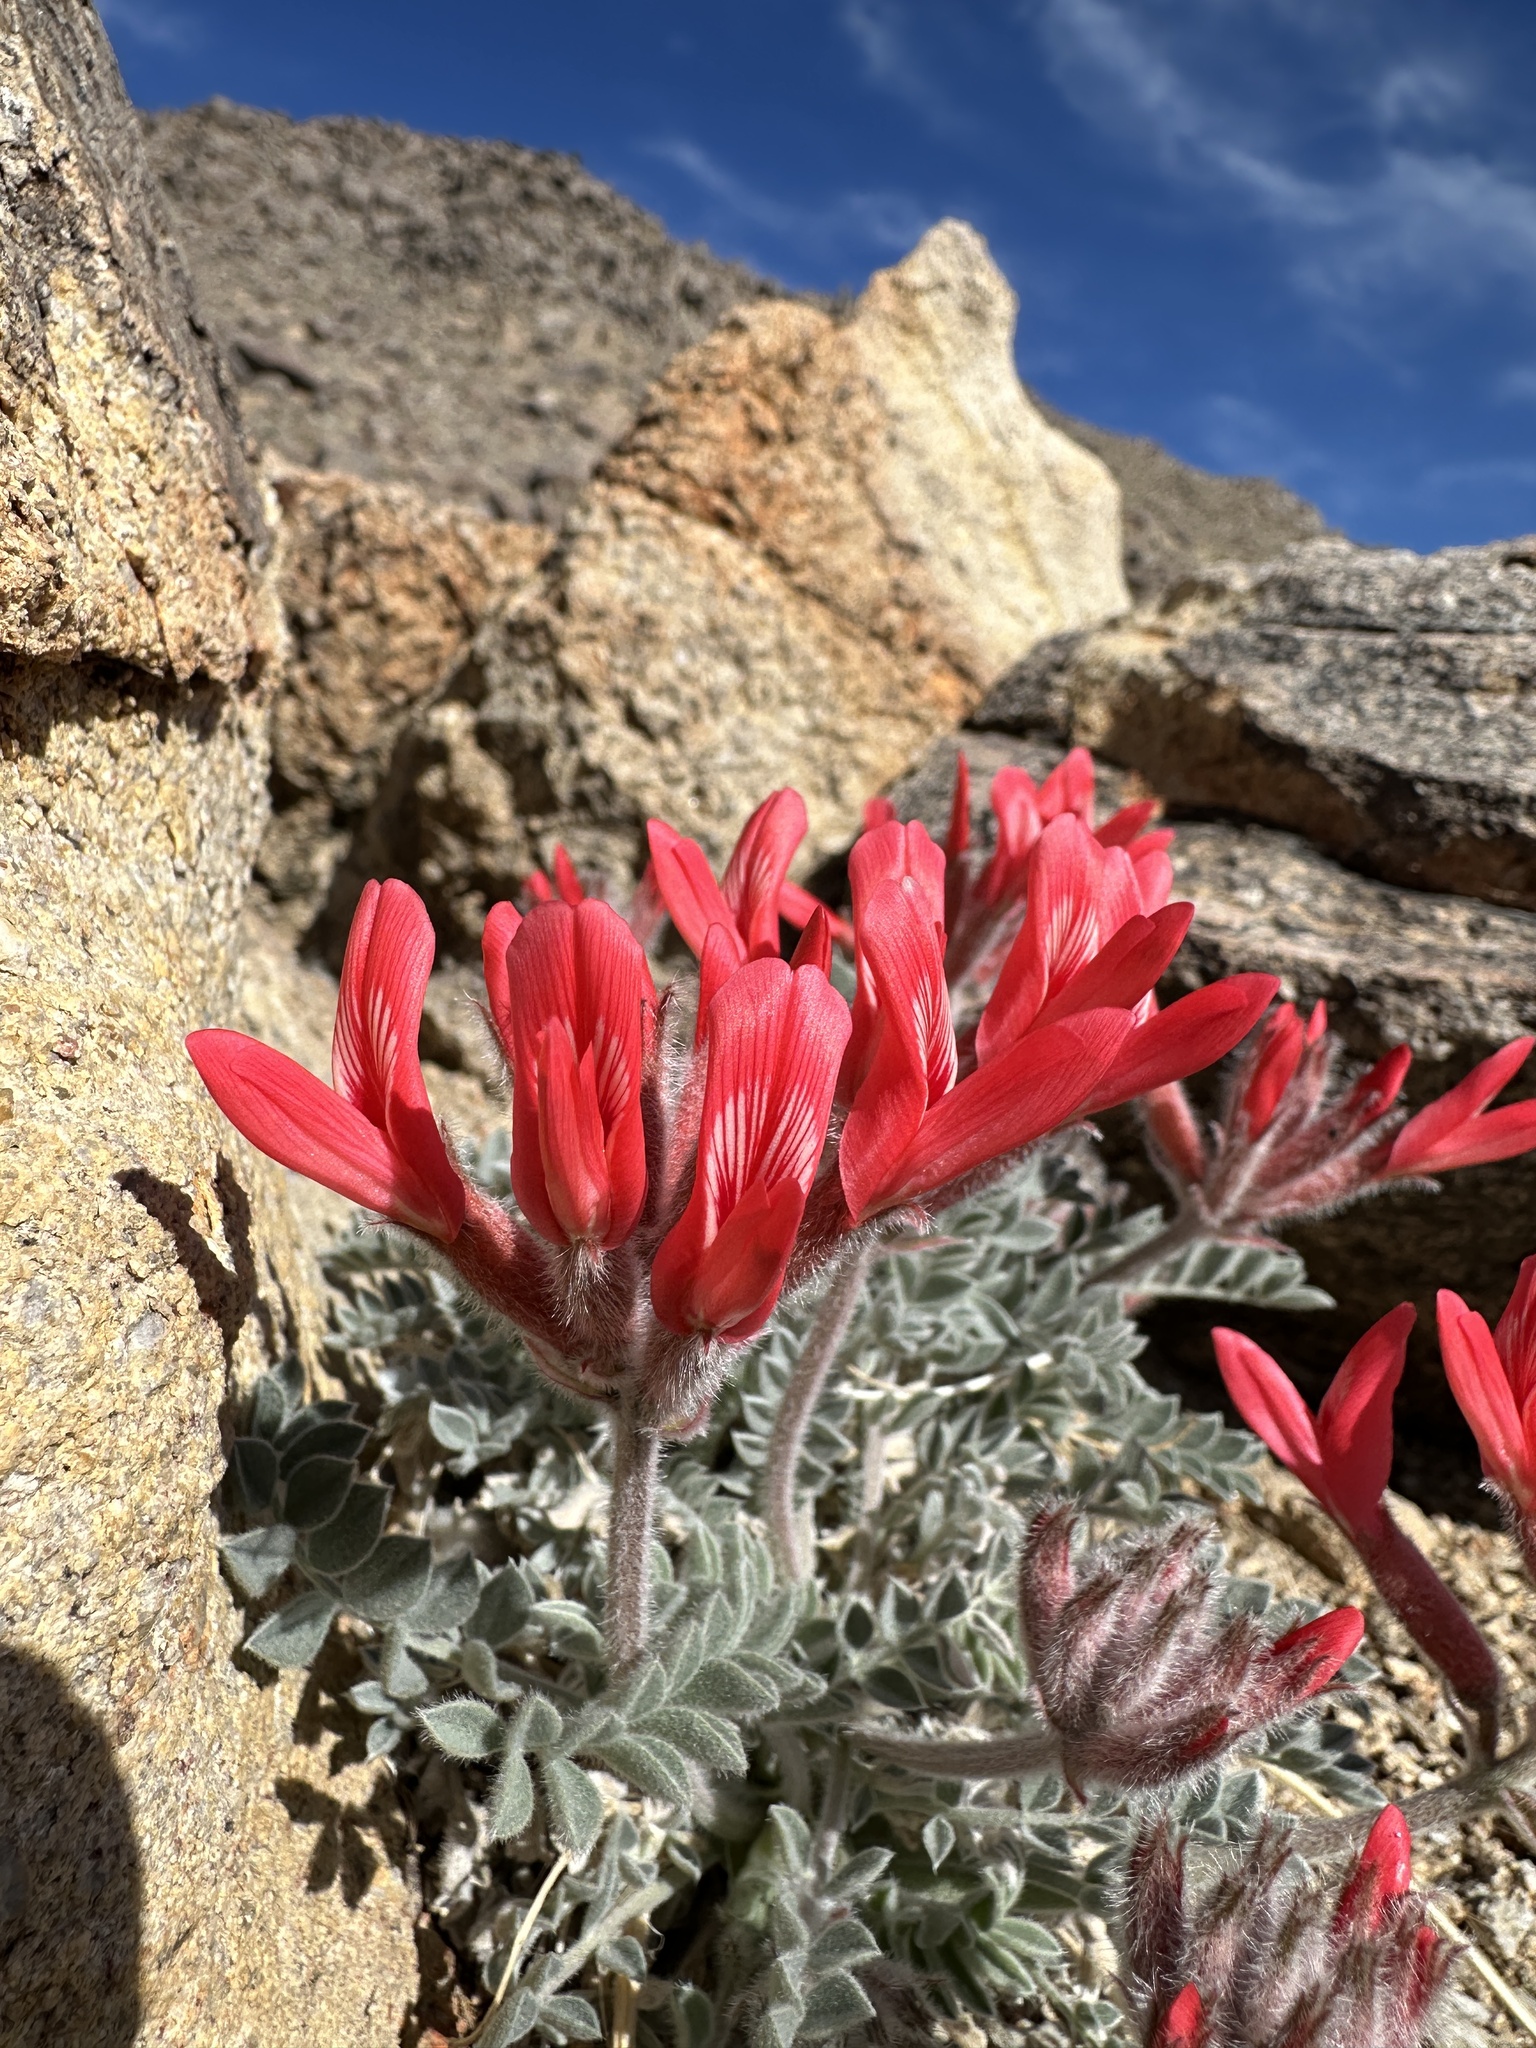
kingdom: Plantae
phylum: Tracheophyta
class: Magnoliopsida
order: Fabales
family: Fabaceae
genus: Astragalus
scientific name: Astragalus coccineus
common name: Scarlet milk-vetch
